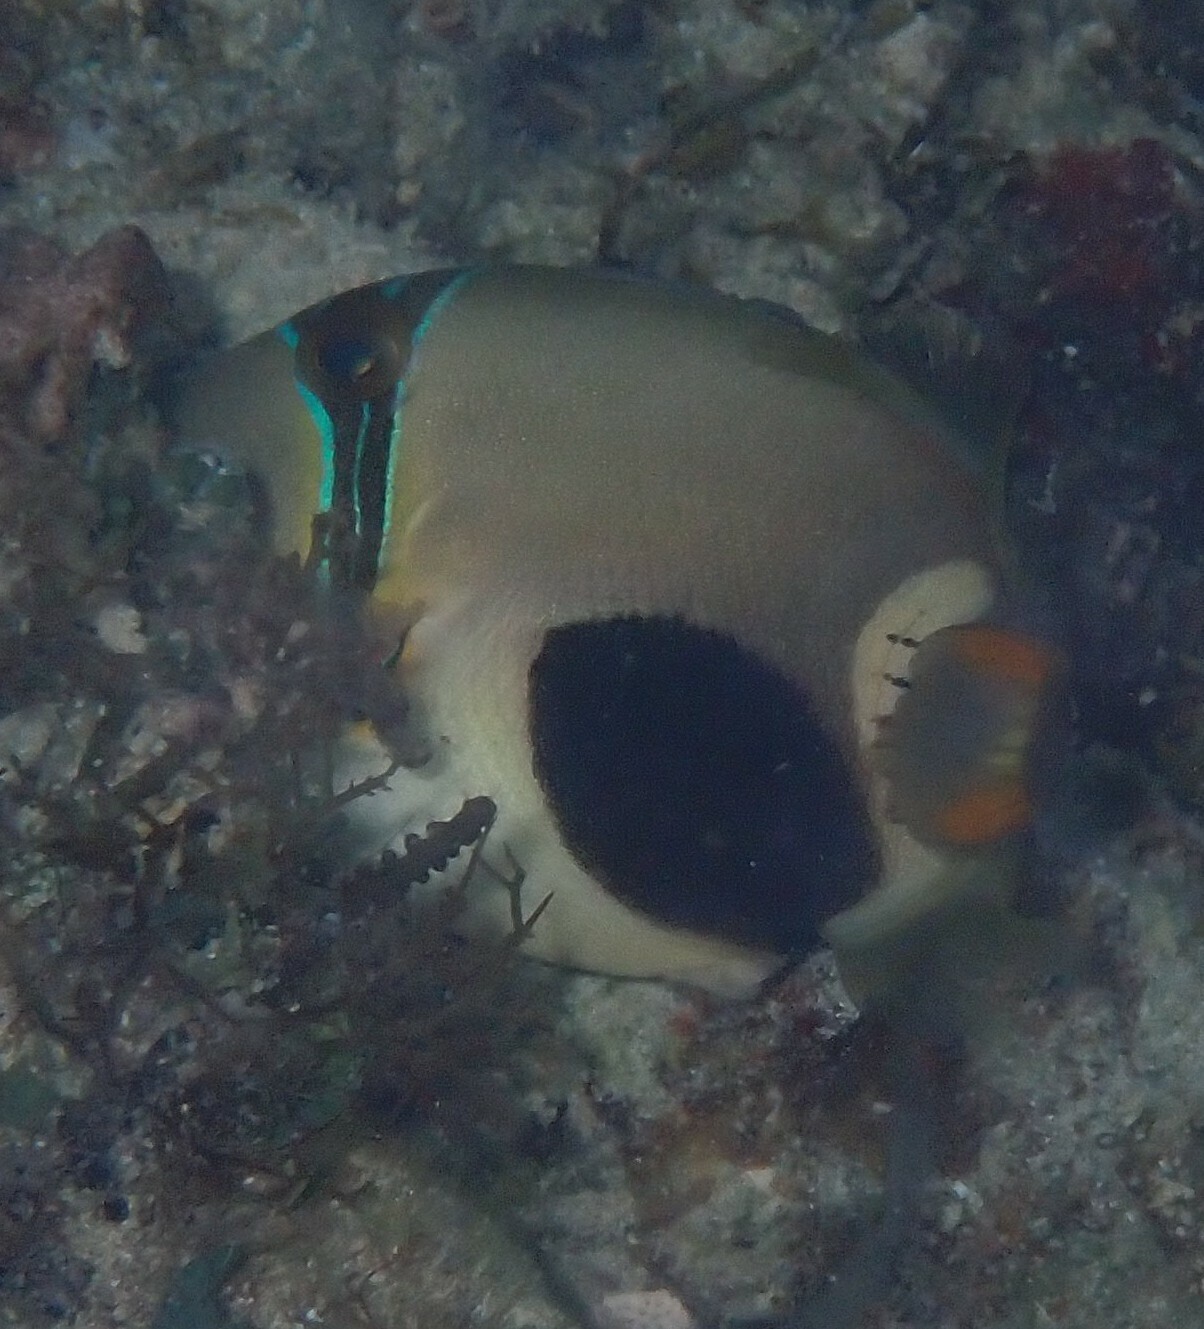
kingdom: Animalia
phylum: Chordata
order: Tetraodontiformes
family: Balistidae
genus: Rhinecanthus
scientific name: Rhinecanthus verrucosus
